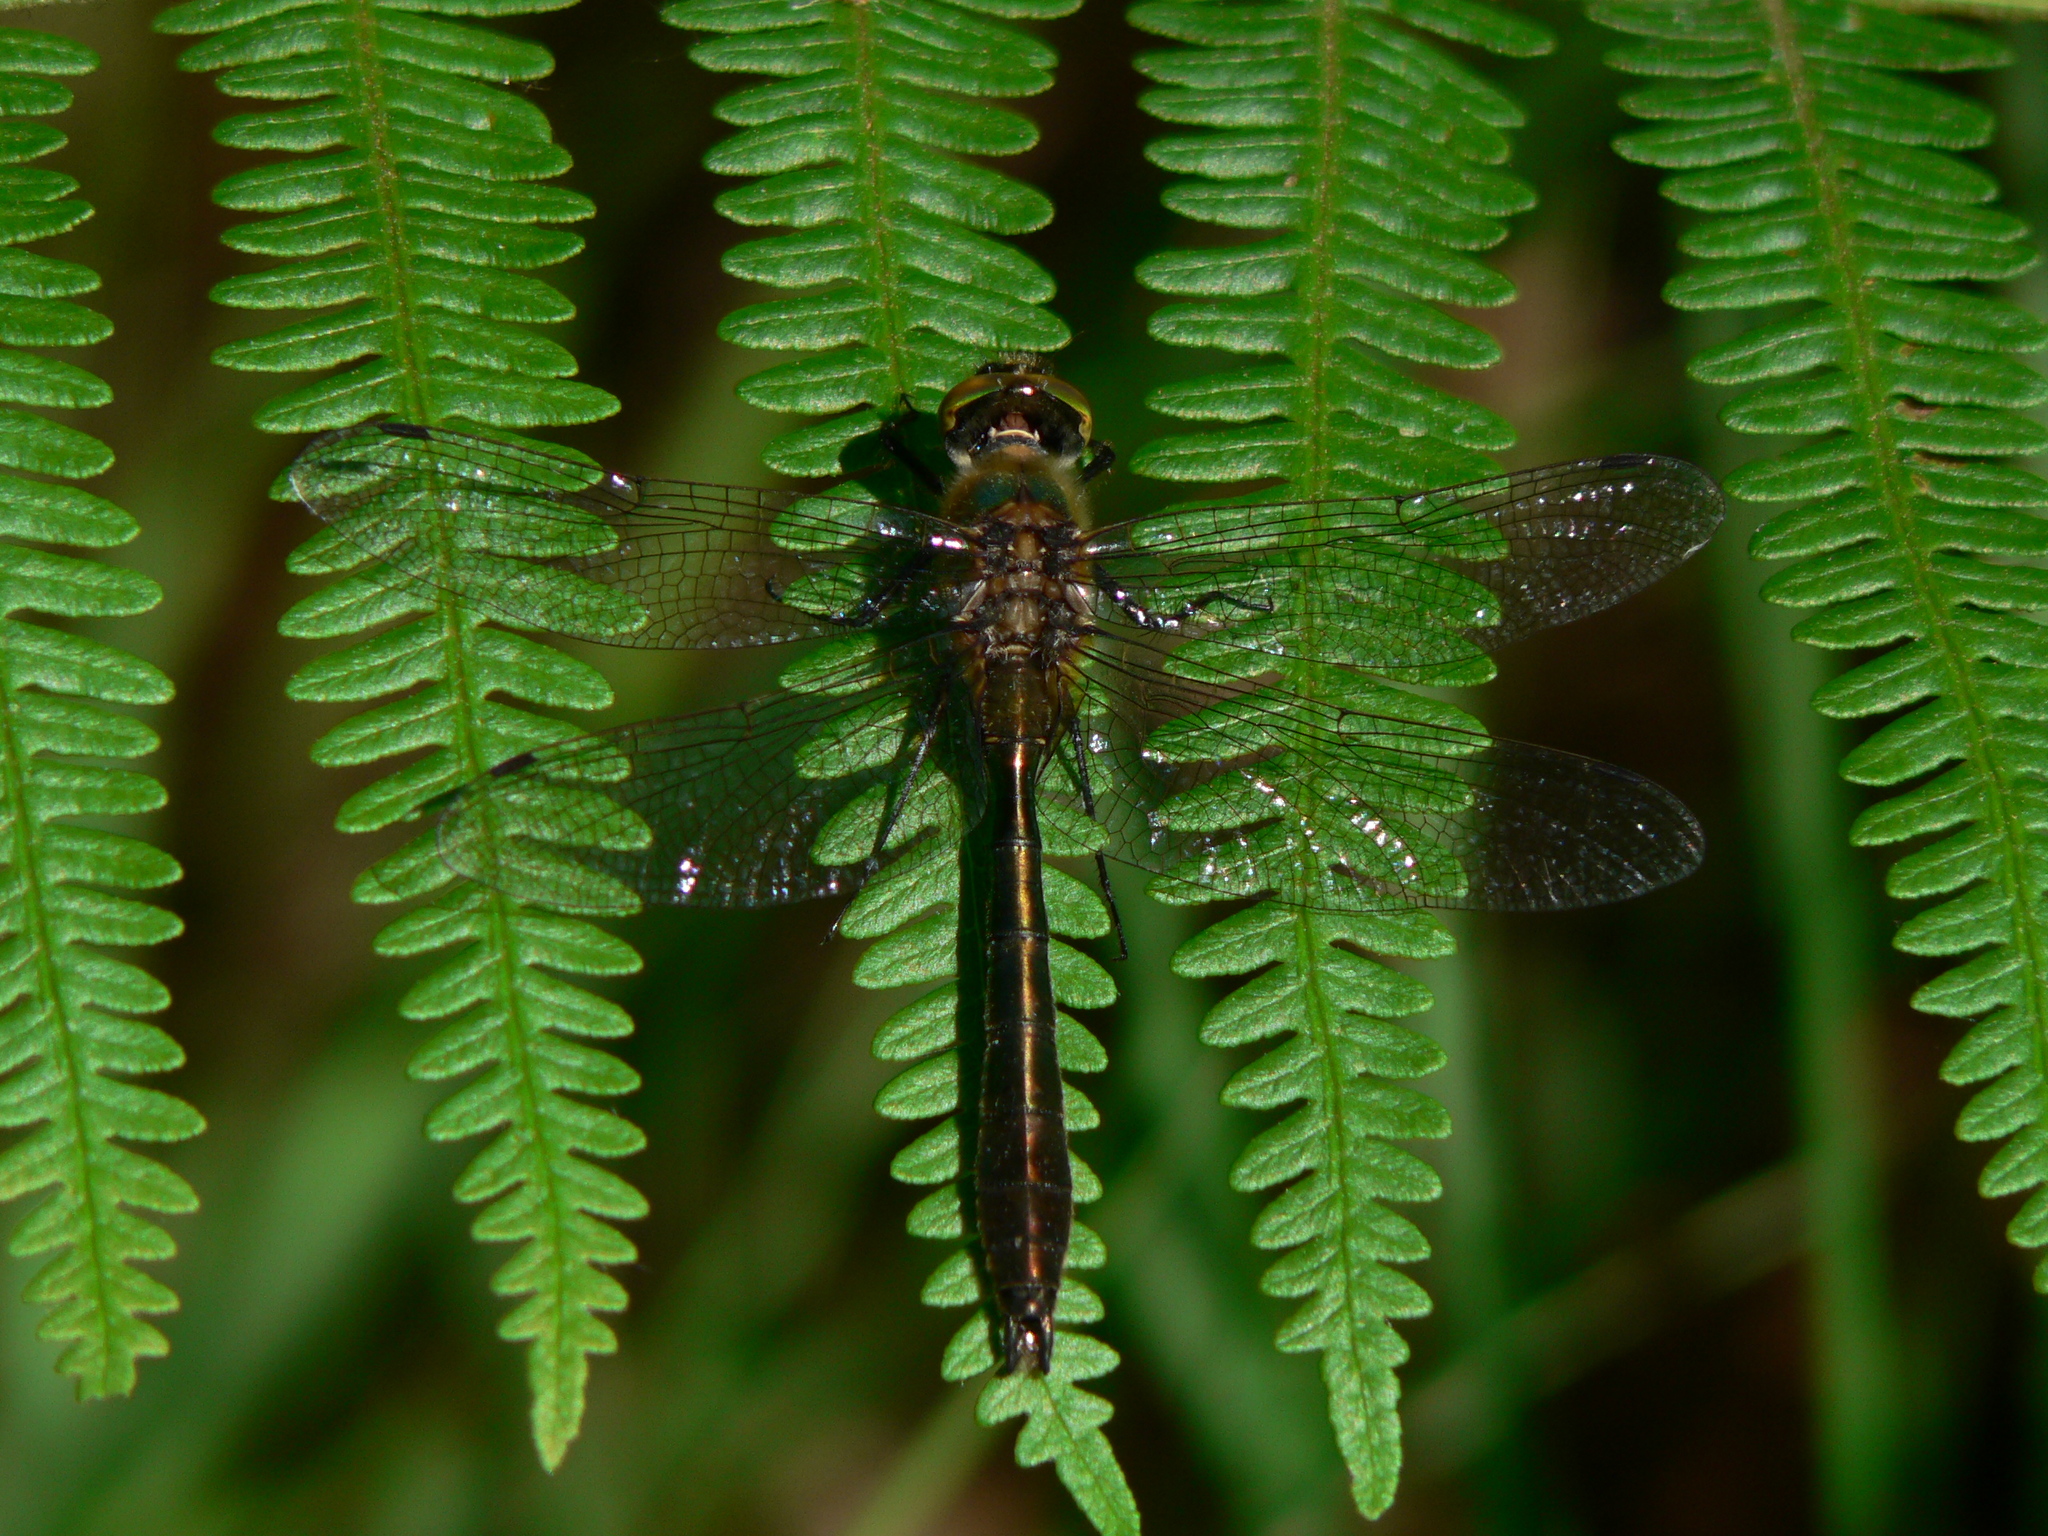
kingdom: Animalia
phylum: Arthropoda
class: Insecta
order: Odonata
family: Corduliidae
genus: Cordulia
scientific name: Cordulia aenea
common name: Downy emerald
